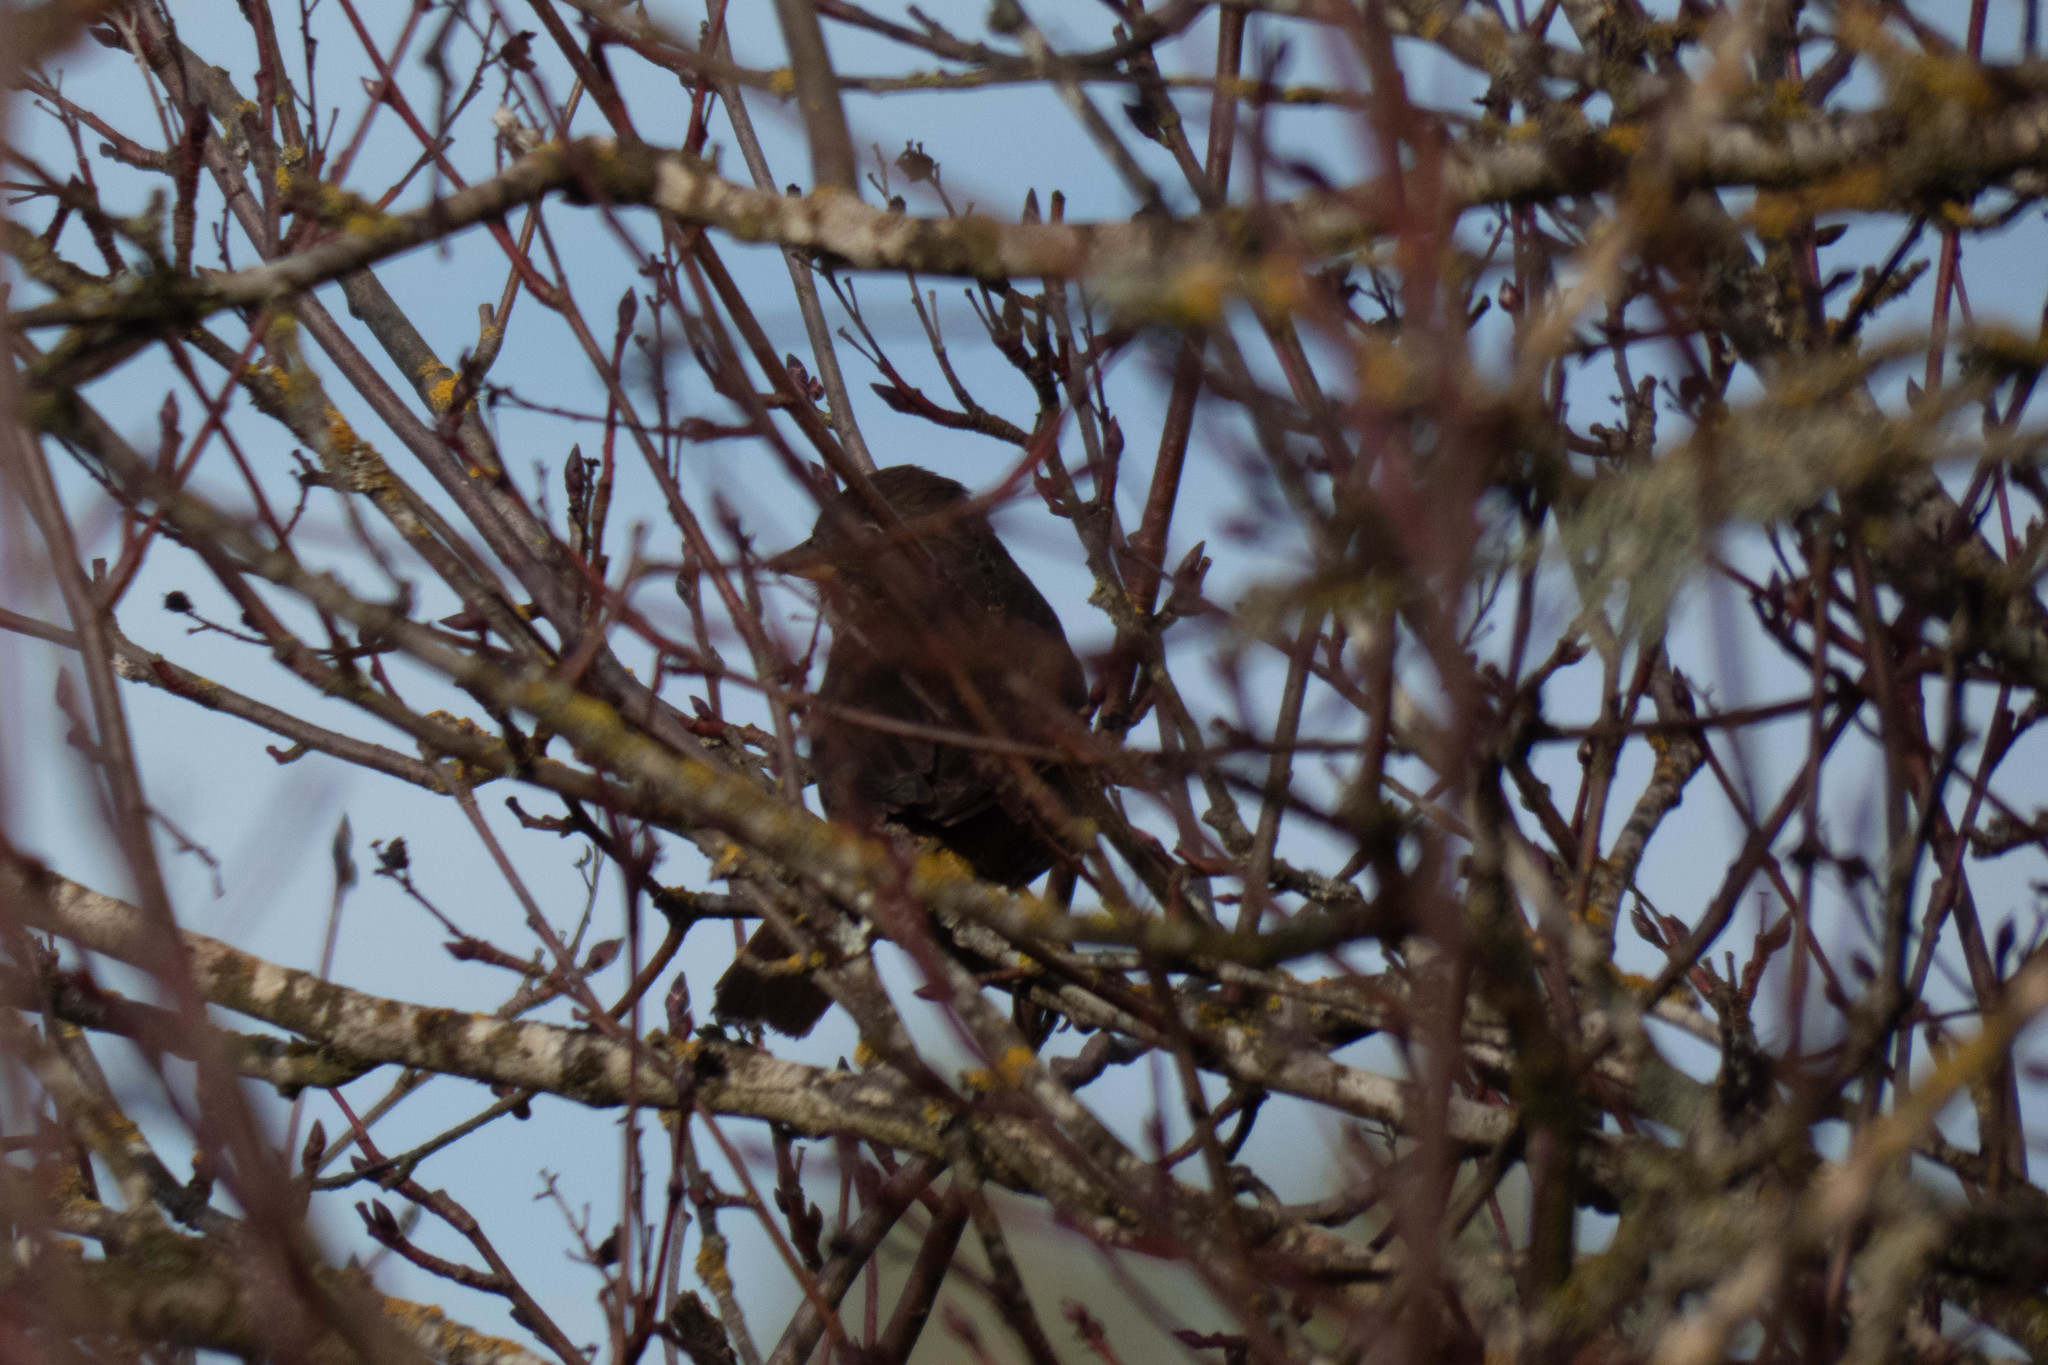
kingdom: Animalia
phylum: Chordata
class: Aves
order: Passeriformes
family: Passerellidae
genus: Passerella
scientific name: Passerella iliaca
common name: Fox sparrow
